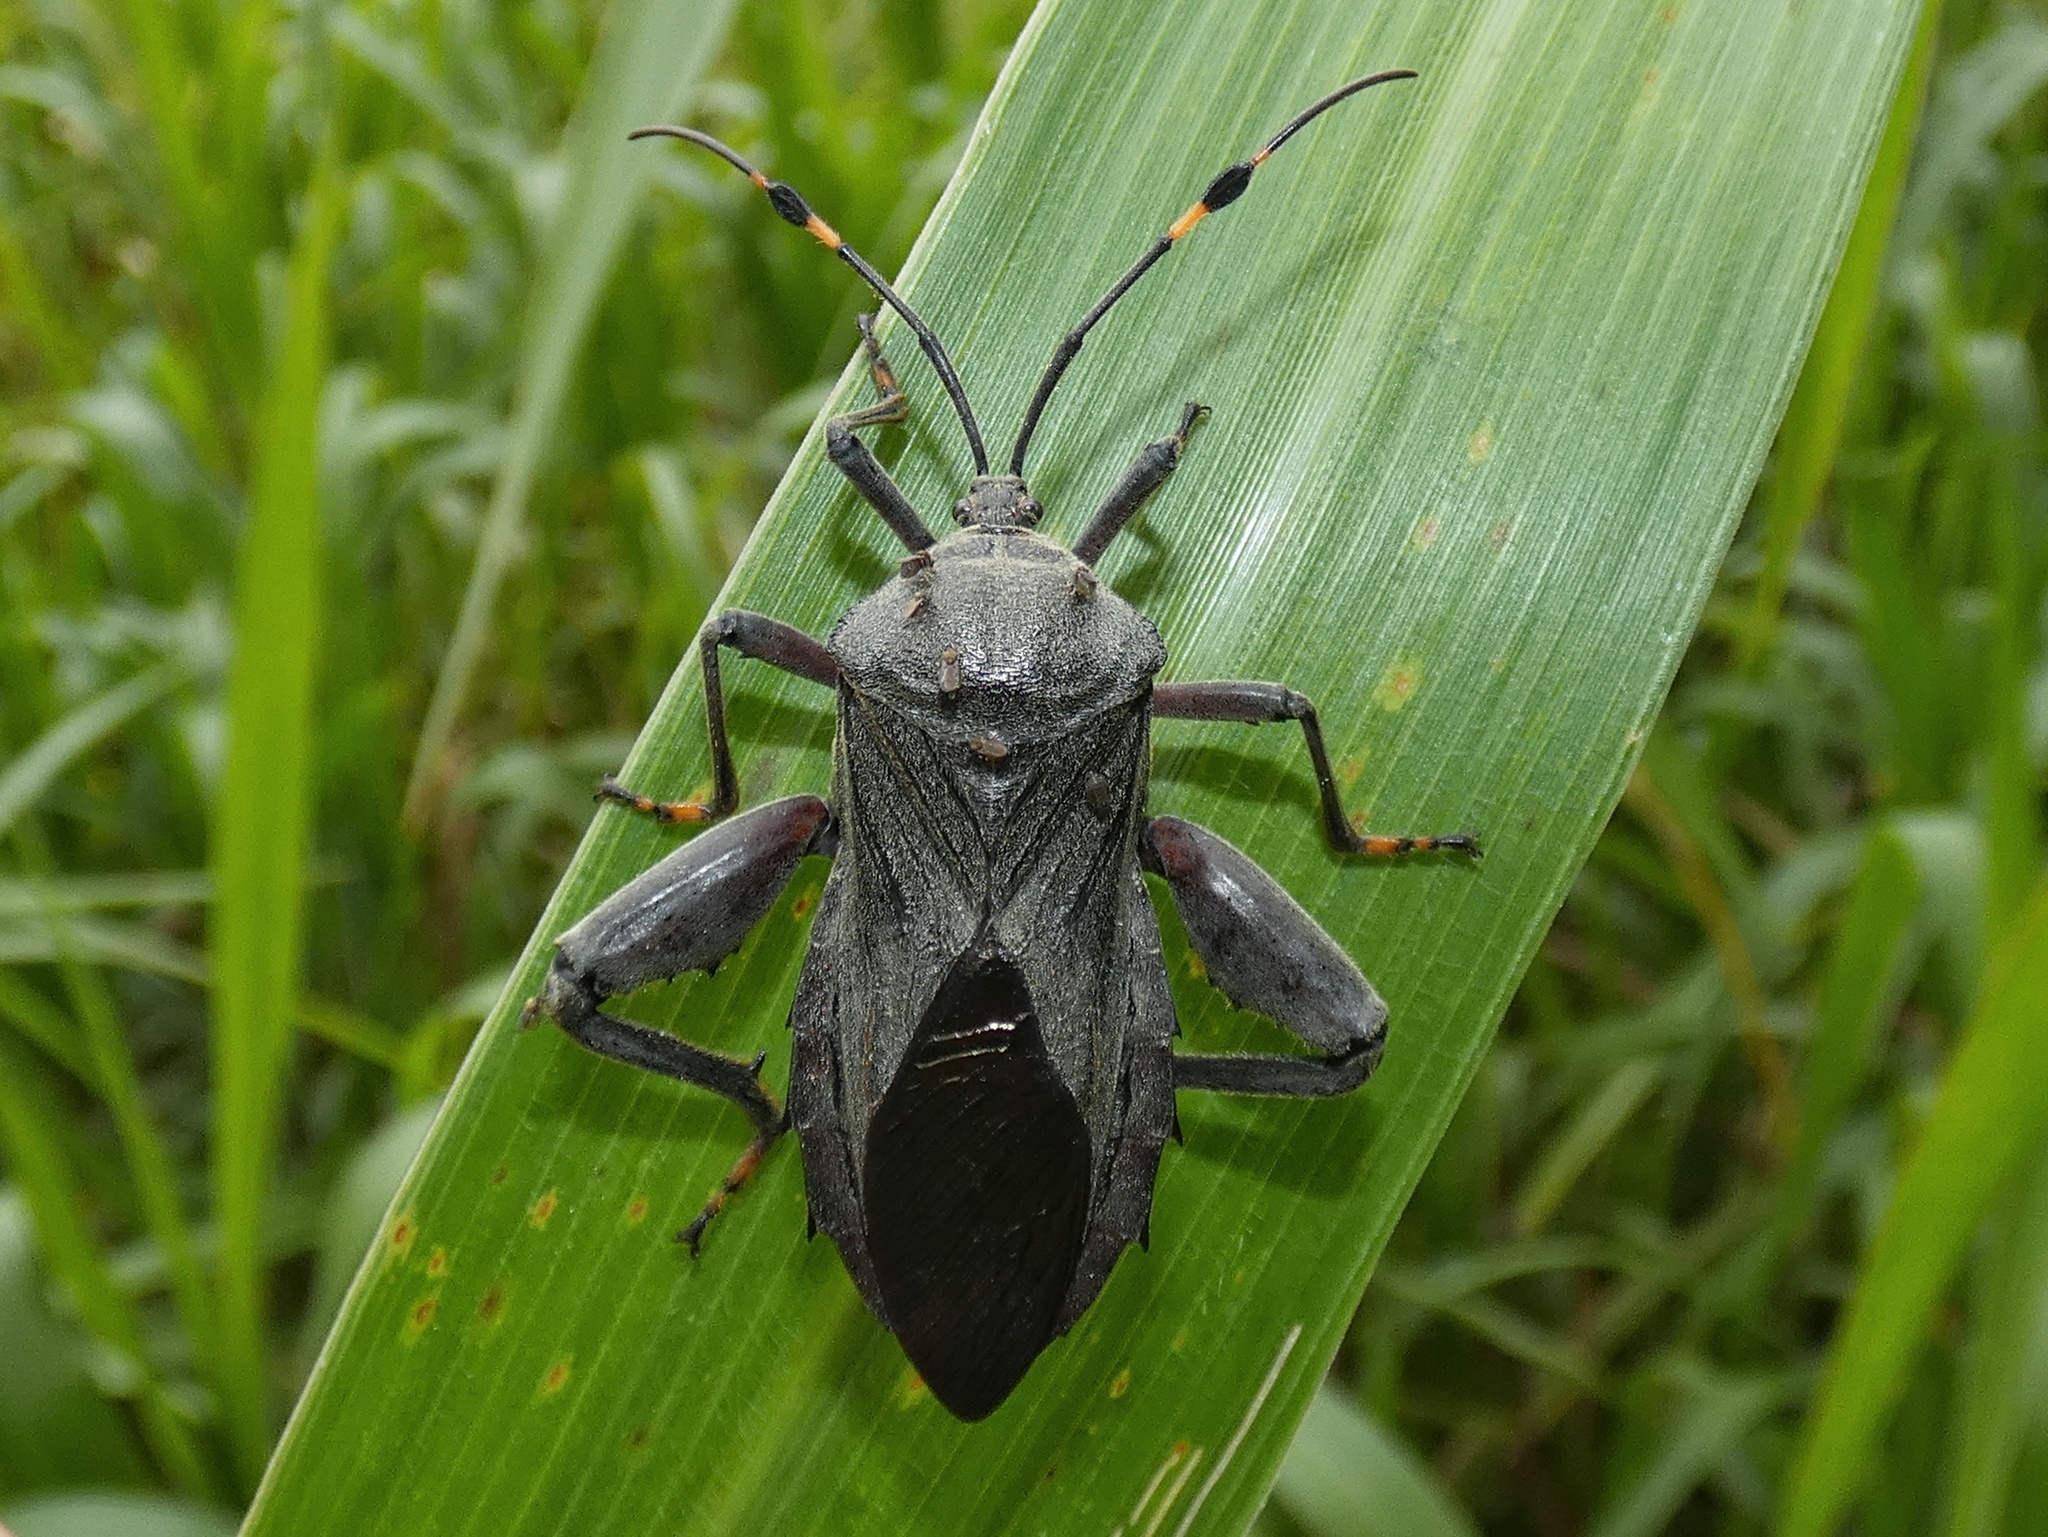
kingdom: Animalia
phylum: Arthropoda
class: Insecta
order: Hemiptera
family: Coreidae
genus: Pachylis
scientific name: Pachylis nervosus
